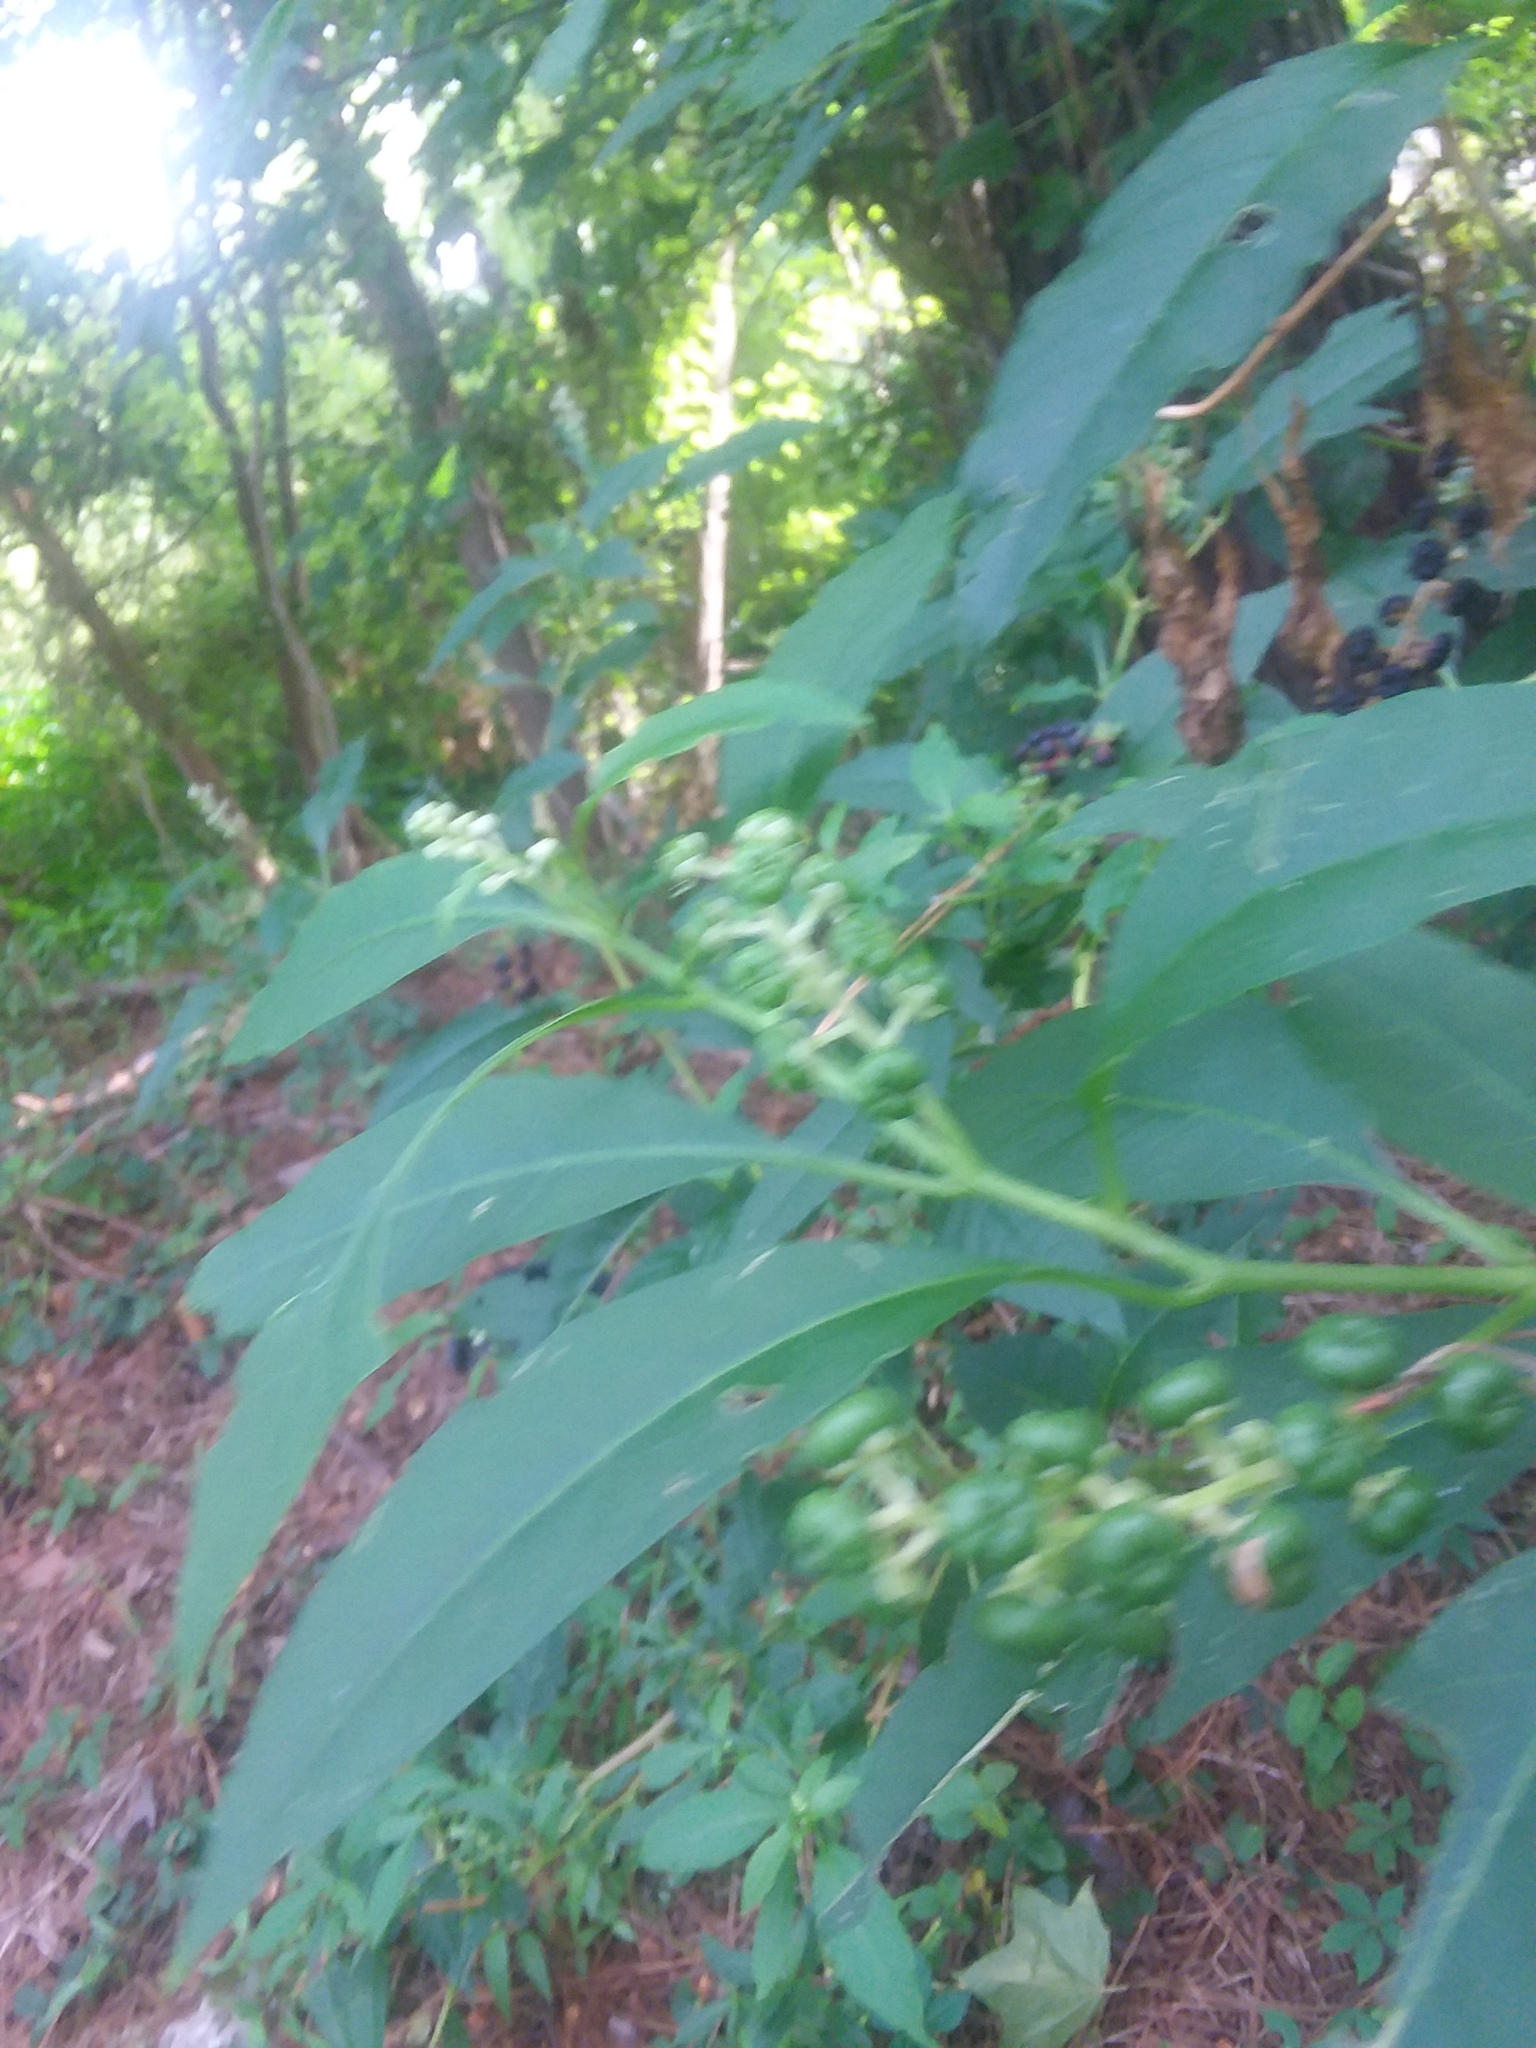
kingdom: Plantae
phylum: Tracheophyta
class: Magnoliopsida
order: Caryophyllales
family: Phytolaccaceae
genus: Phytolacca
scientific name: Phytolacca americana
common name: American pokeweed
